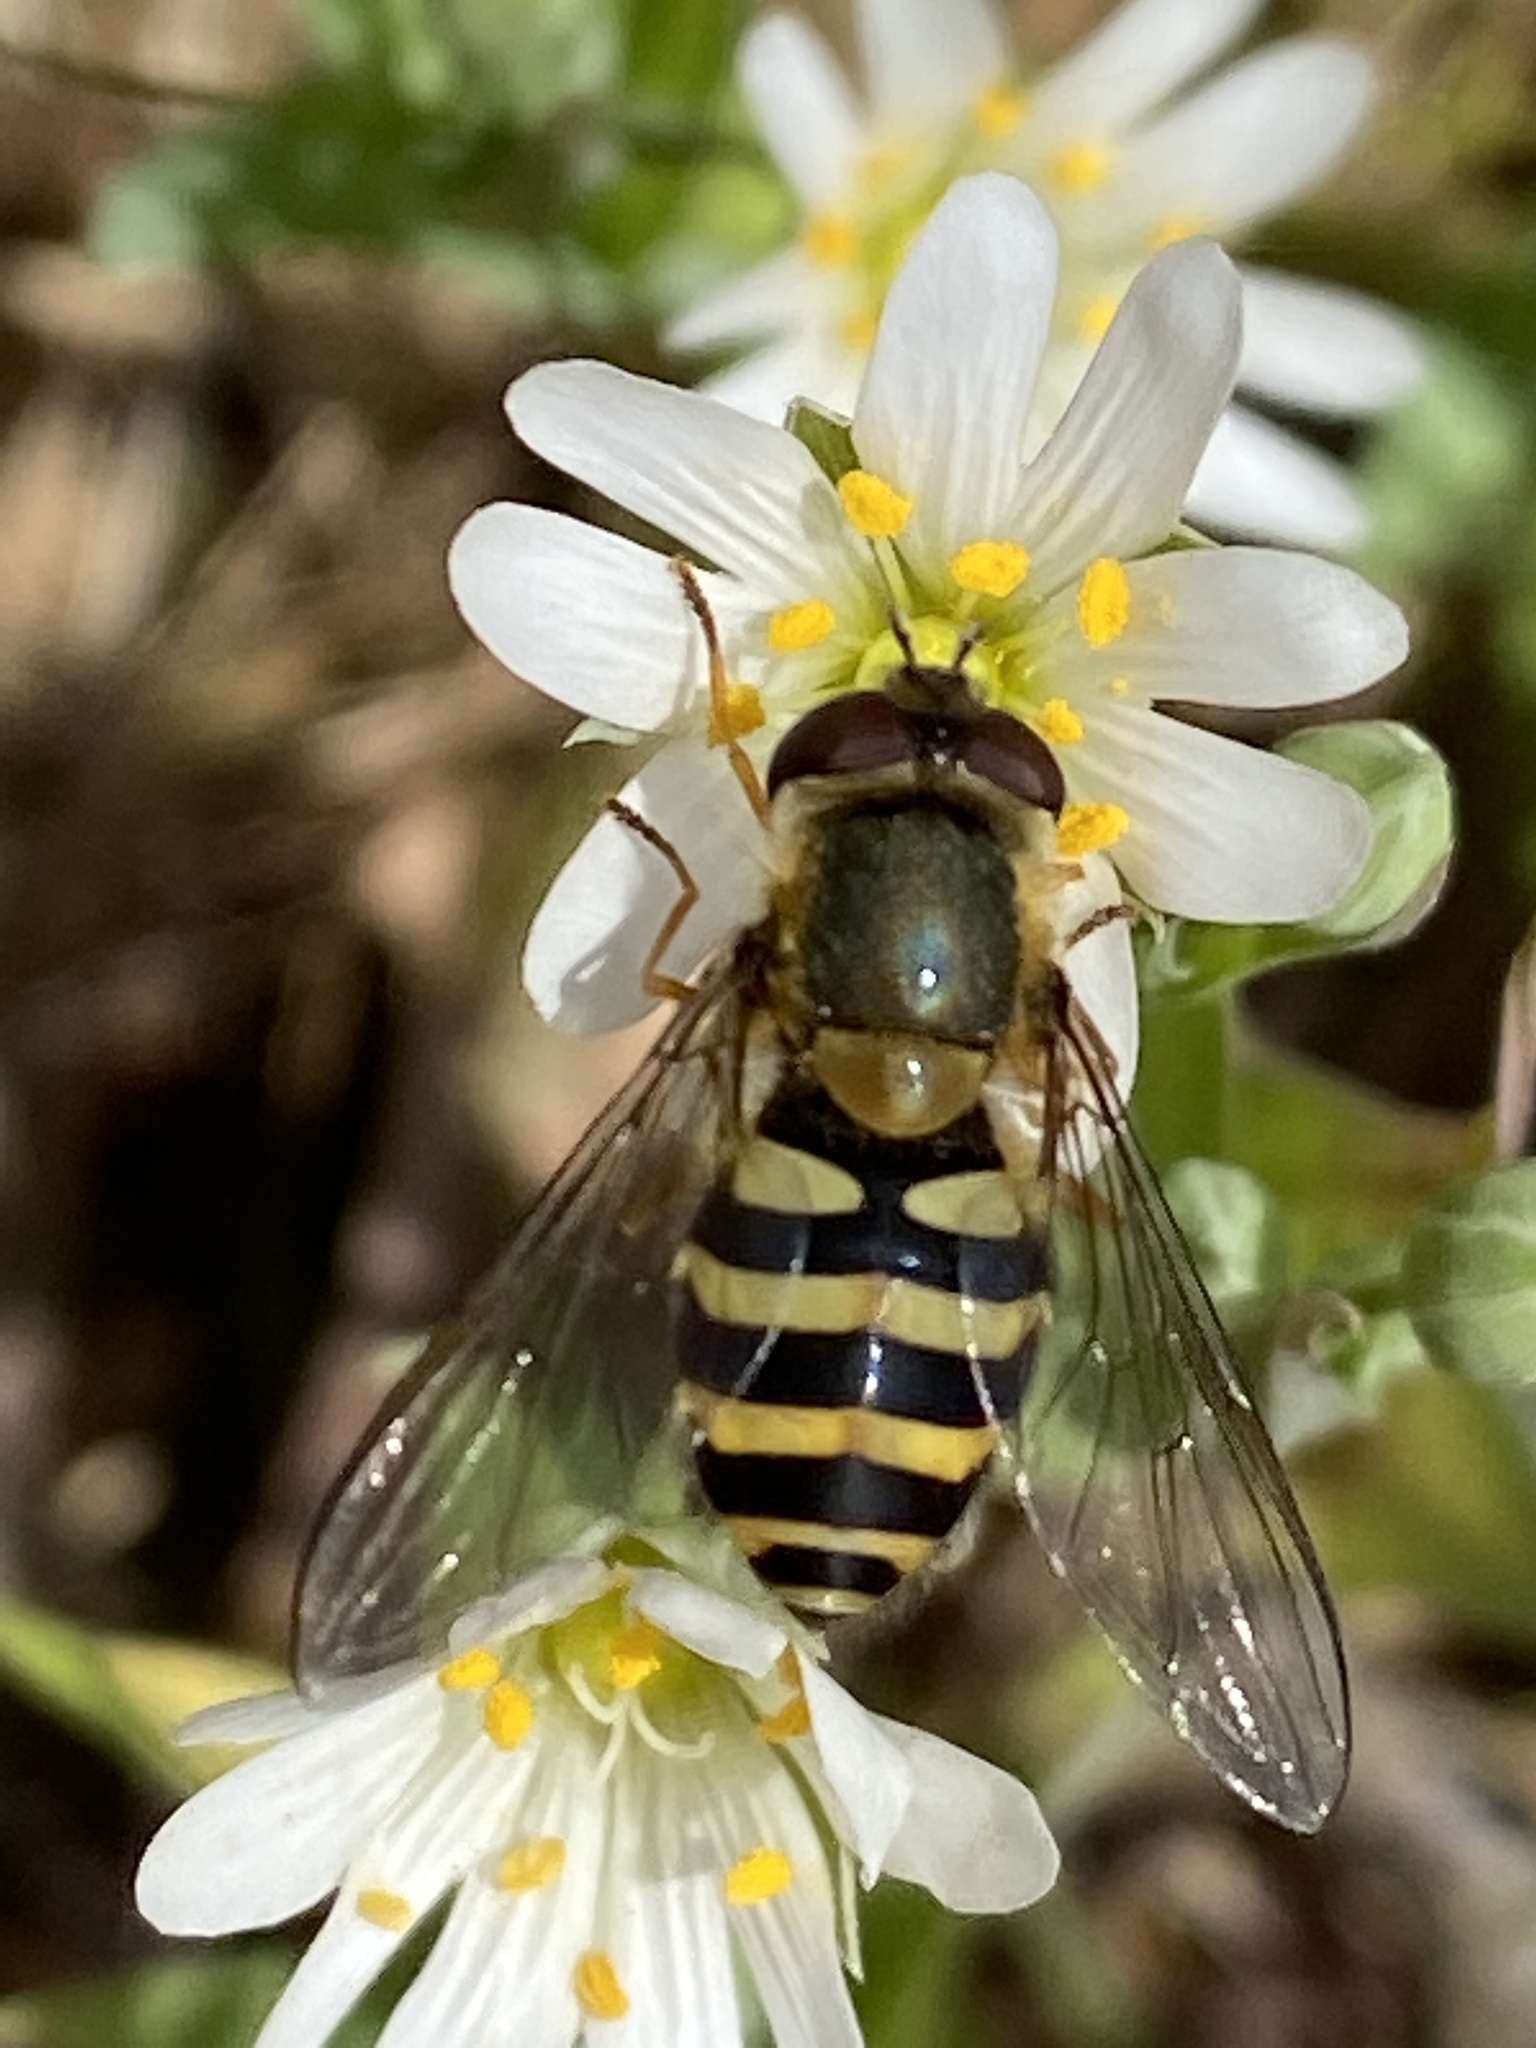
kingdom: Animalia
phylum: Arthropoda
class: Insecta
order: Diptera
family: Syrphidae
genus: Syrphus
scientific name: Syrphus
